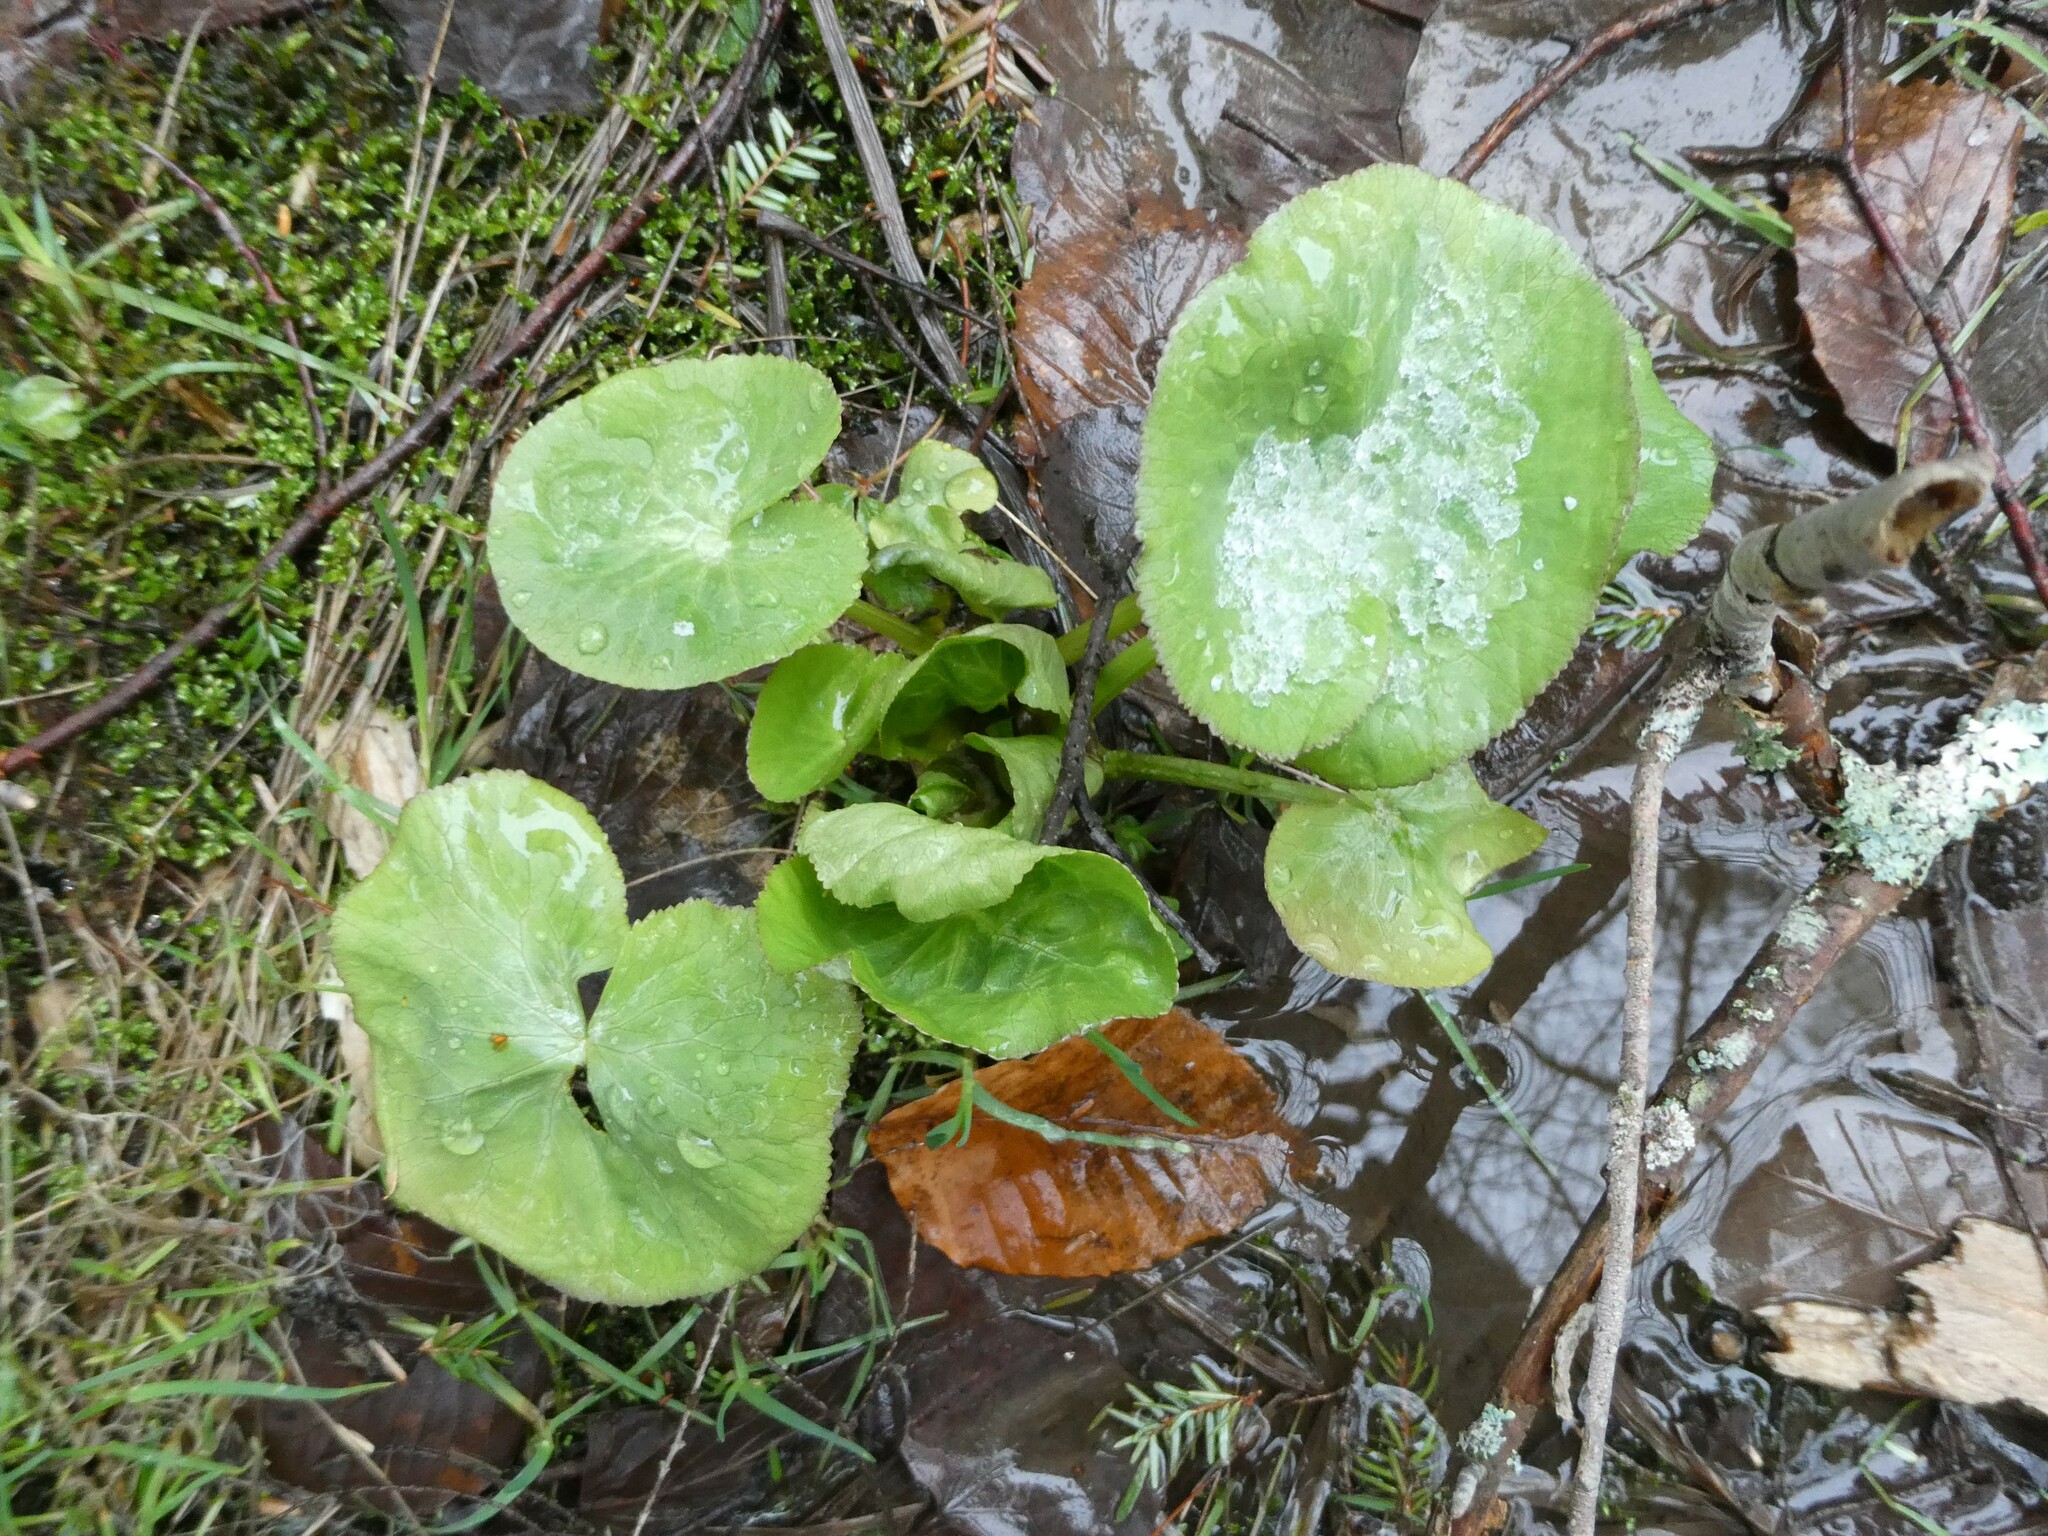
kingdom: Plantae
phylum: Tracheophyta
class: Magnoliopsida
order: Ranunculales
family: Ranunculaceae
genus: Caltha
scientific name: Caltha palustris
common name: Marsh marigold
